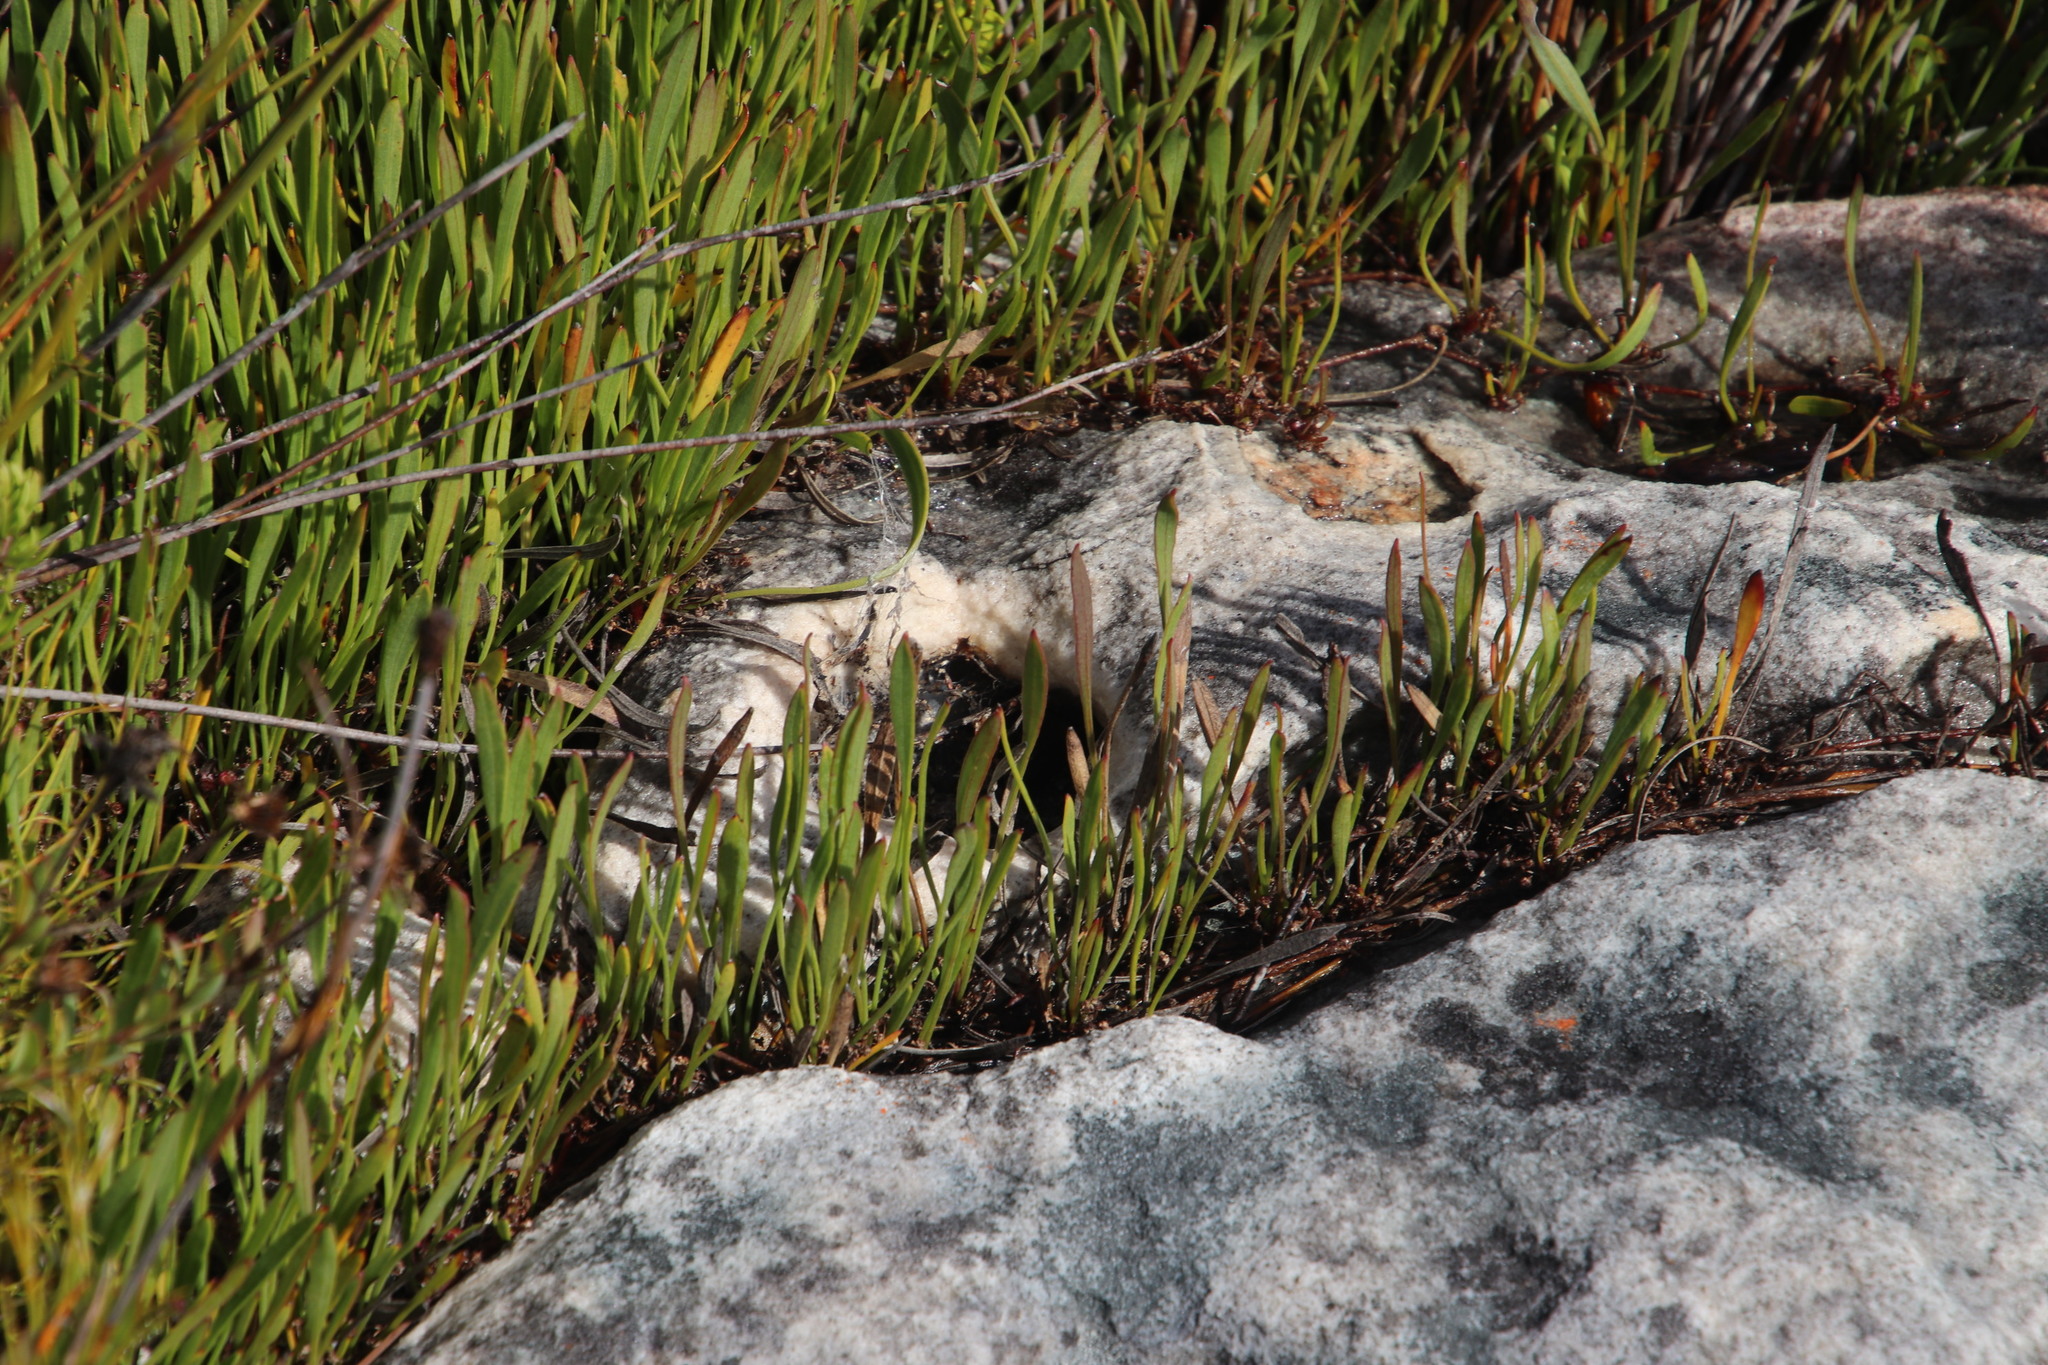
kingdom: Plantae
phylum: Tracheophyta
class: Magnoliopsida
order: Apiales
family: Apiaceae
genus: Centella
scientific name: Centella glabrata
